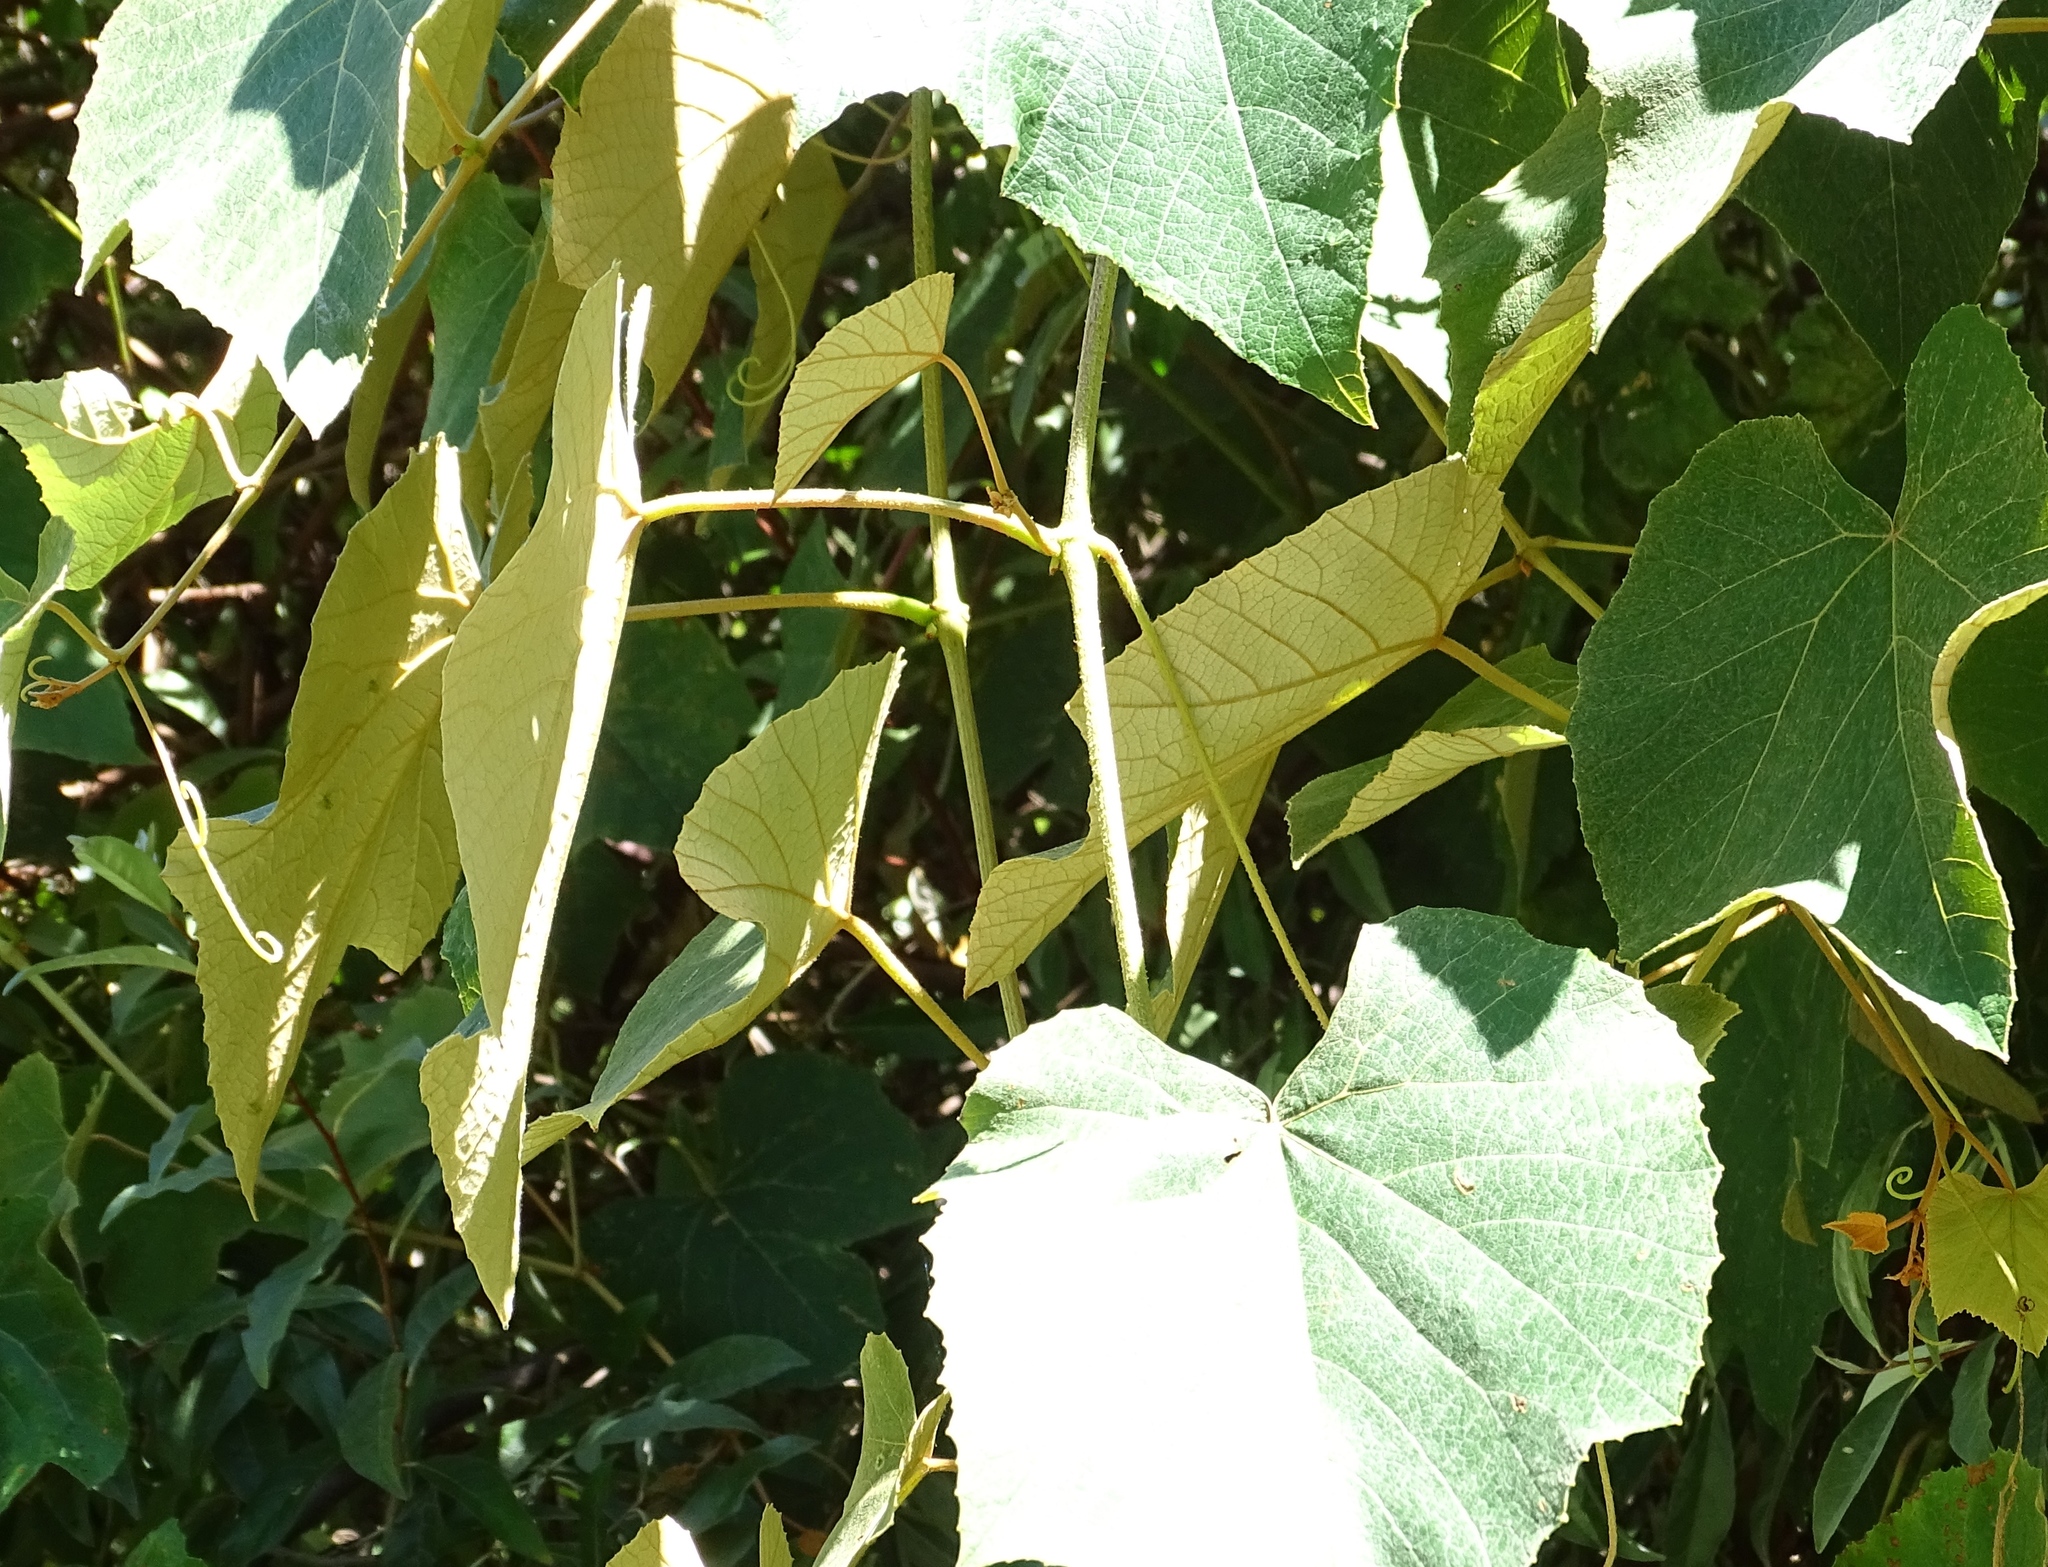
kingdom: Plantae
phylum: Tracheophyta
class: Magnoliopsida
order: Vitales
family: Vitaceae
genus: Vitis
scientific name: Vitis labrusca
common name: Concord grape
